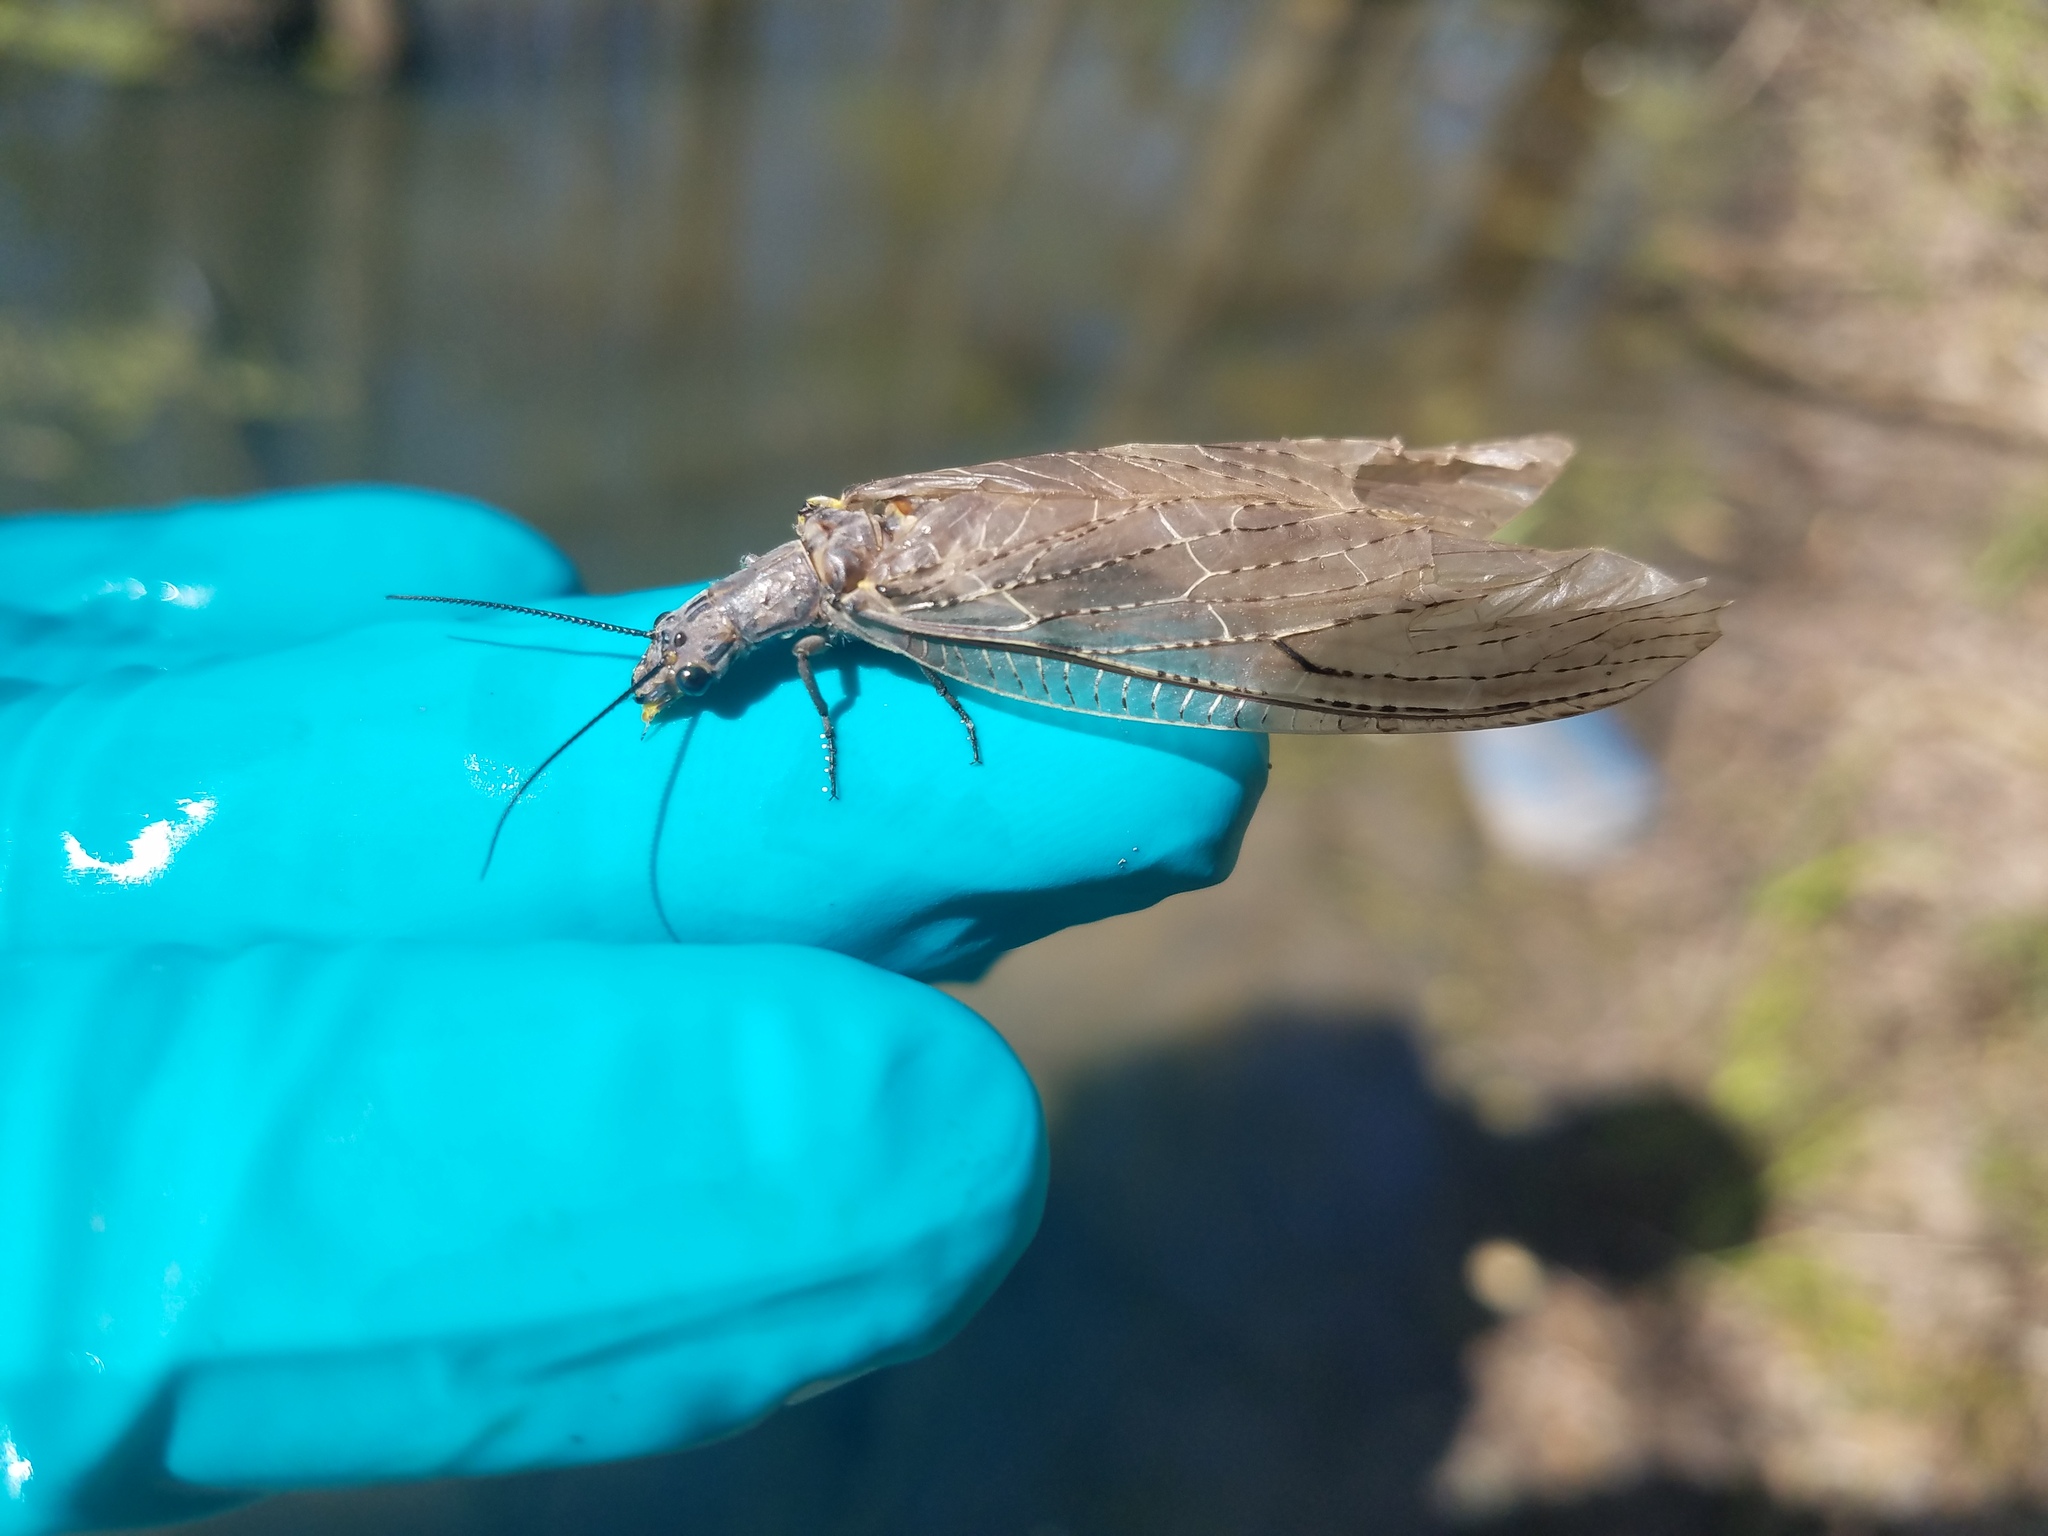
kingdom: Animalia
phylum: Arthropoda
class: Insecta
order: Megaloptera
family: Corydalidae
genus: Chauliodes
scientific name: Chauliodes rastricornis
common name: Spring fishfly
